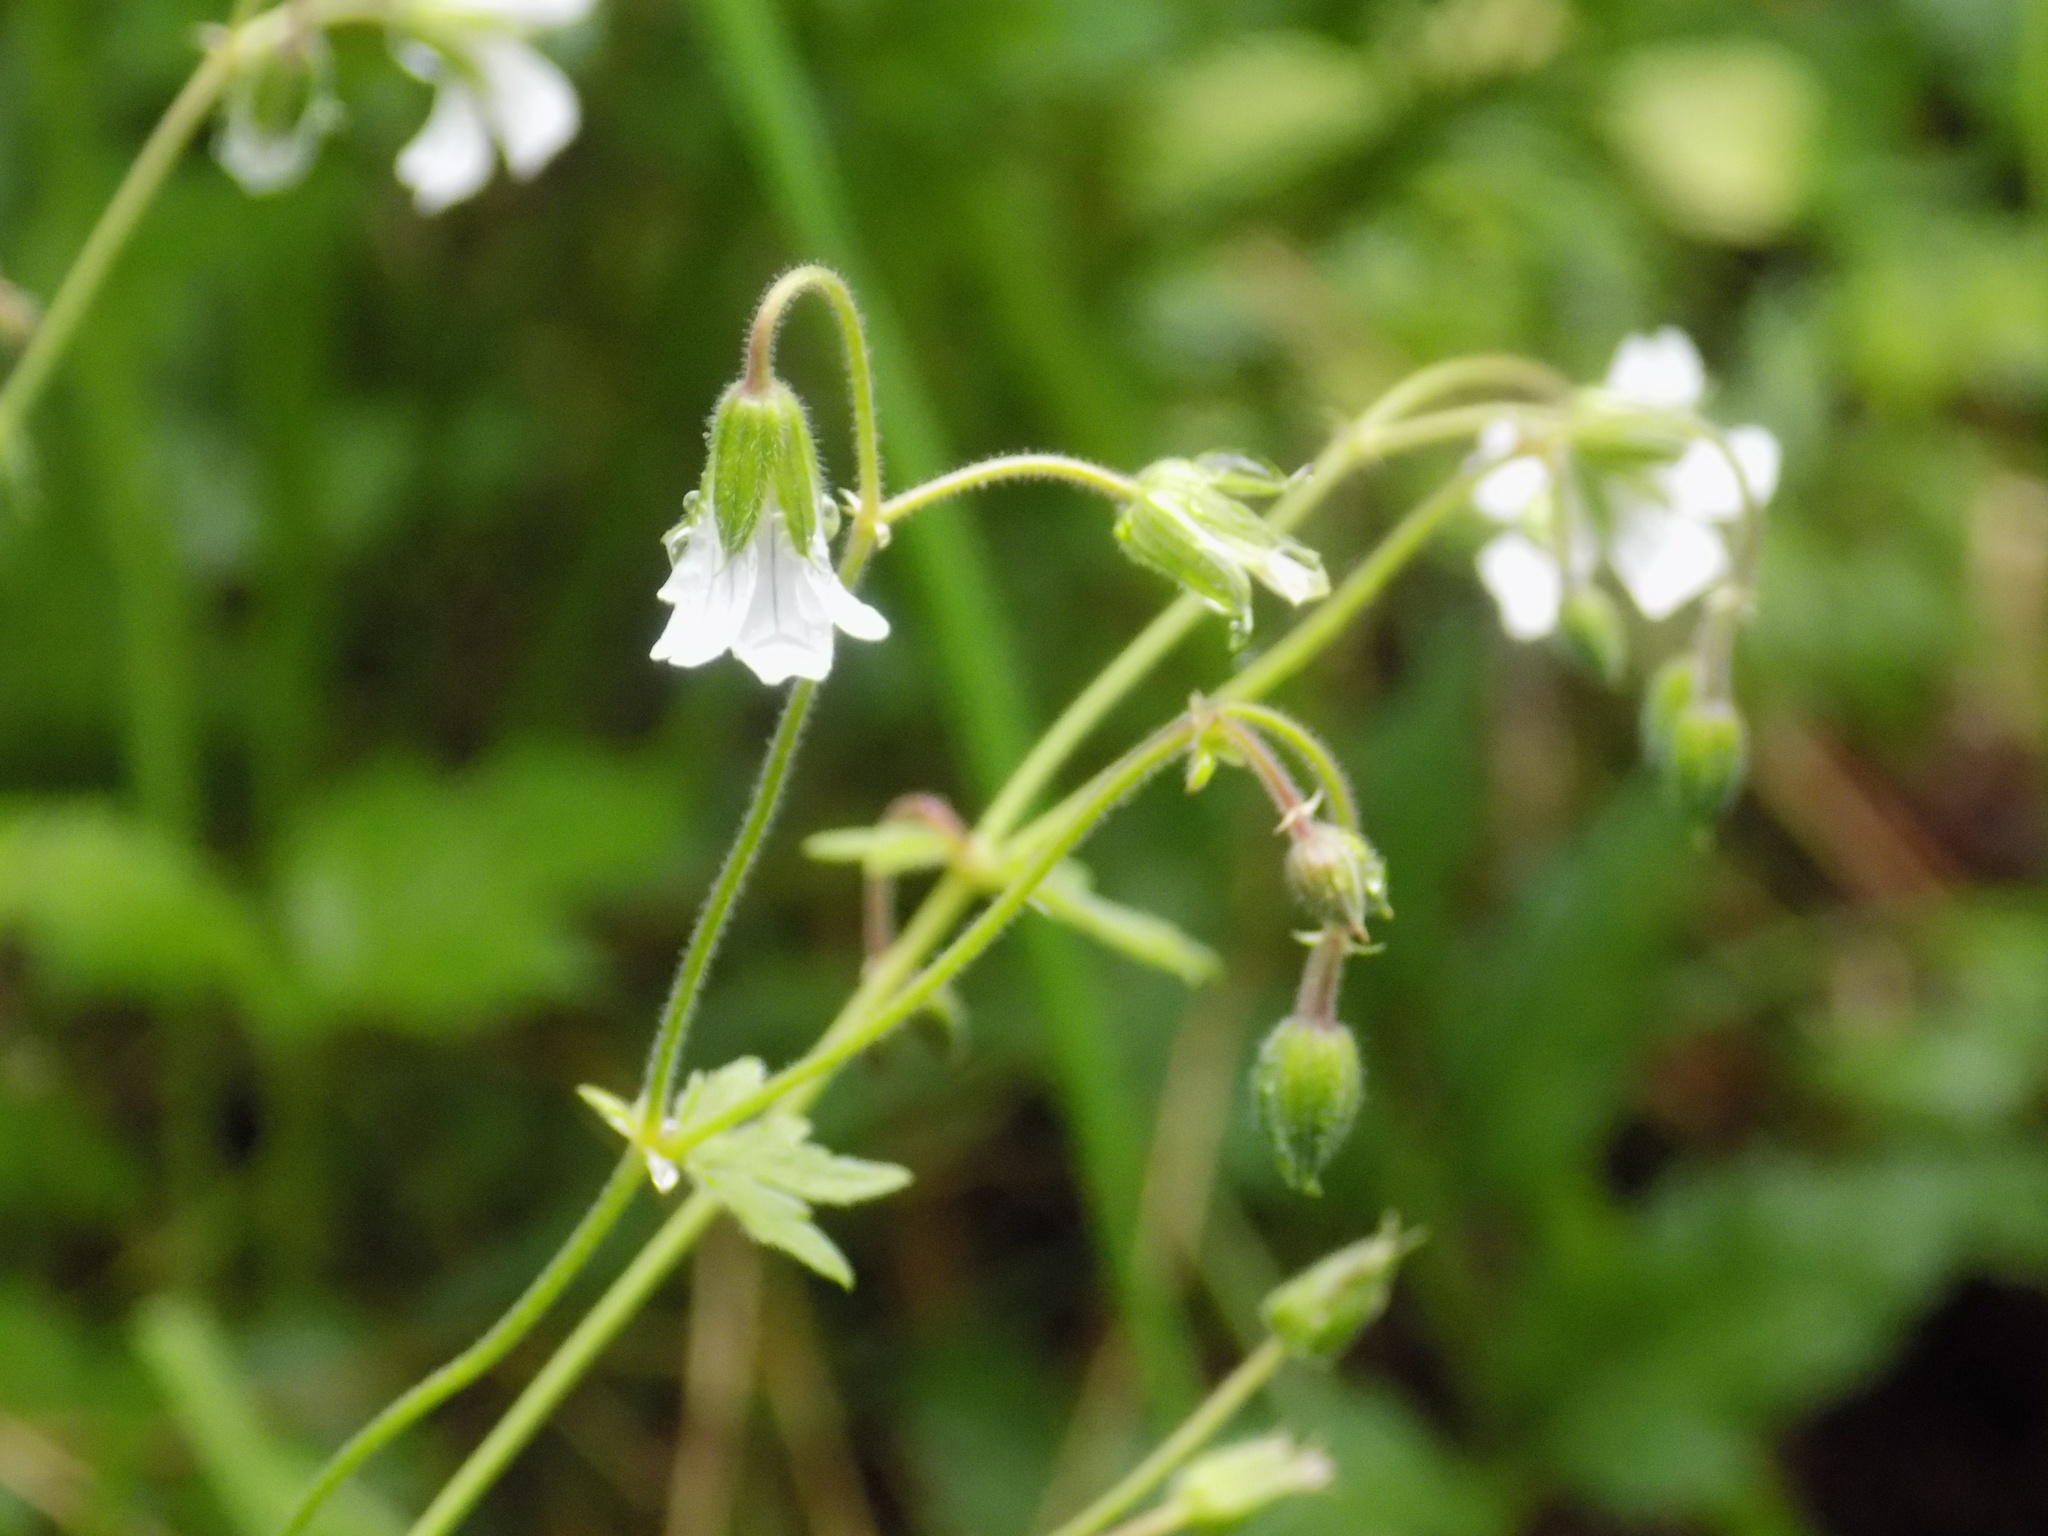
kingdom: Plantae
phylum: Tracheophyta
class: Magnoliopsida
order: Geraniales
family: Geraniaceae
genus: Geranium
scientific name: Geranium pseudosibiricum
